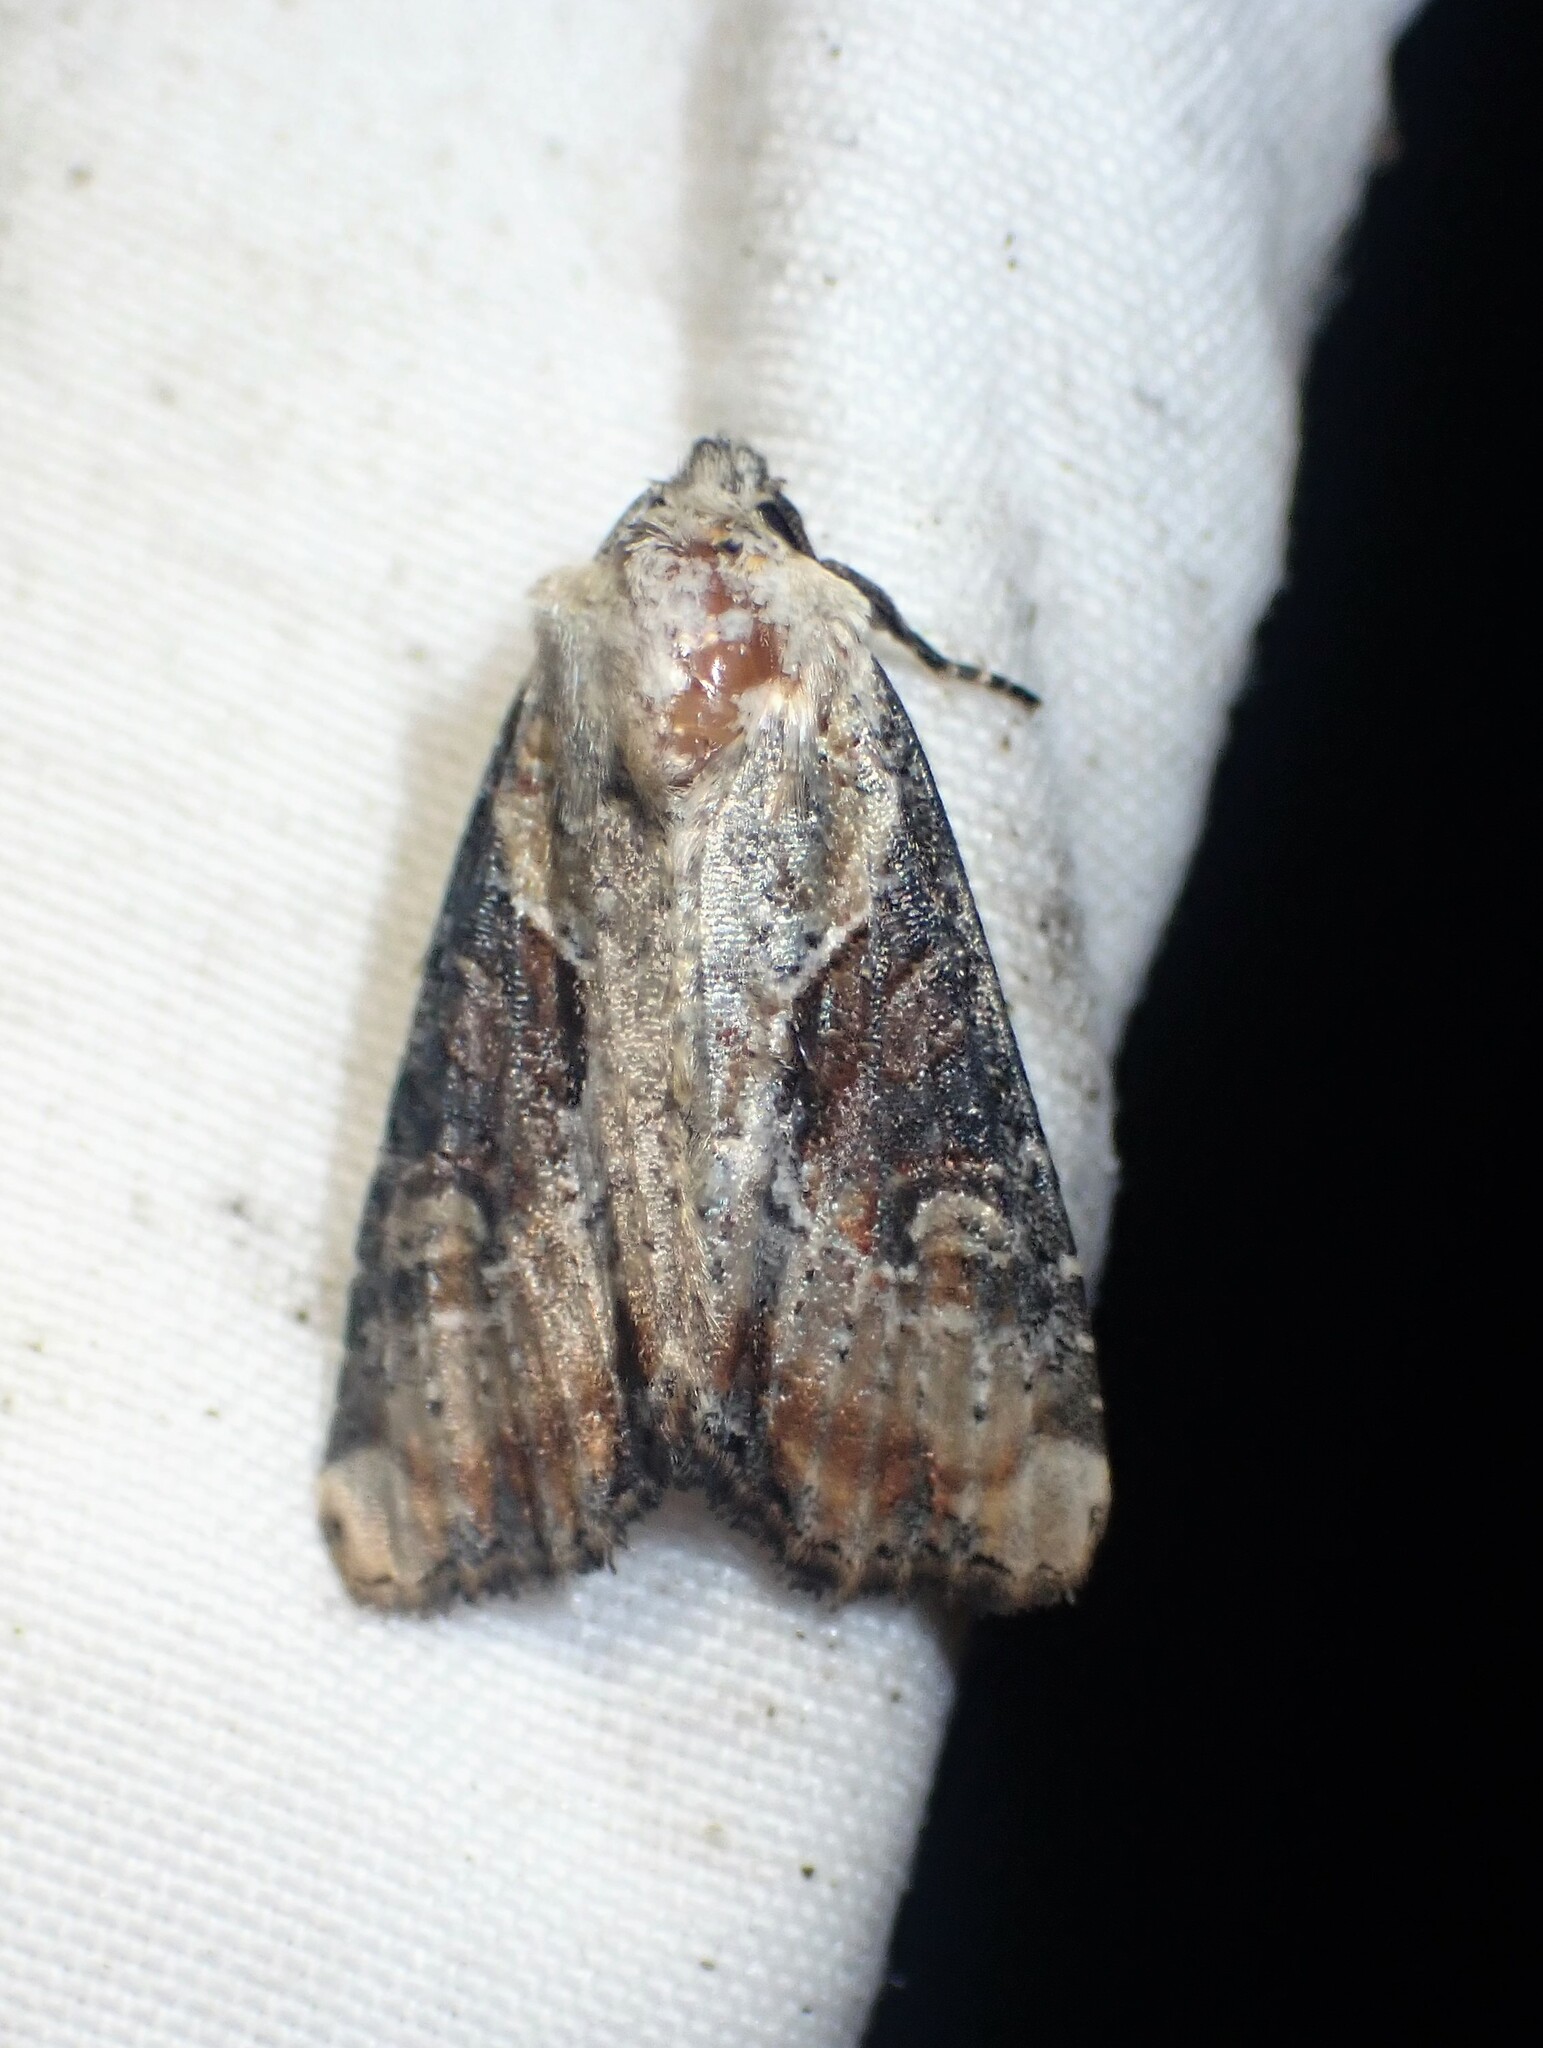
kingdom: Animalia
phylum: Arthropoda
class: Insecta
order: Lepidoptera
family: Noctuidae
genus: Lateroligia
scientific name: Lateroligia ophiogramma
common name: Double lobed
